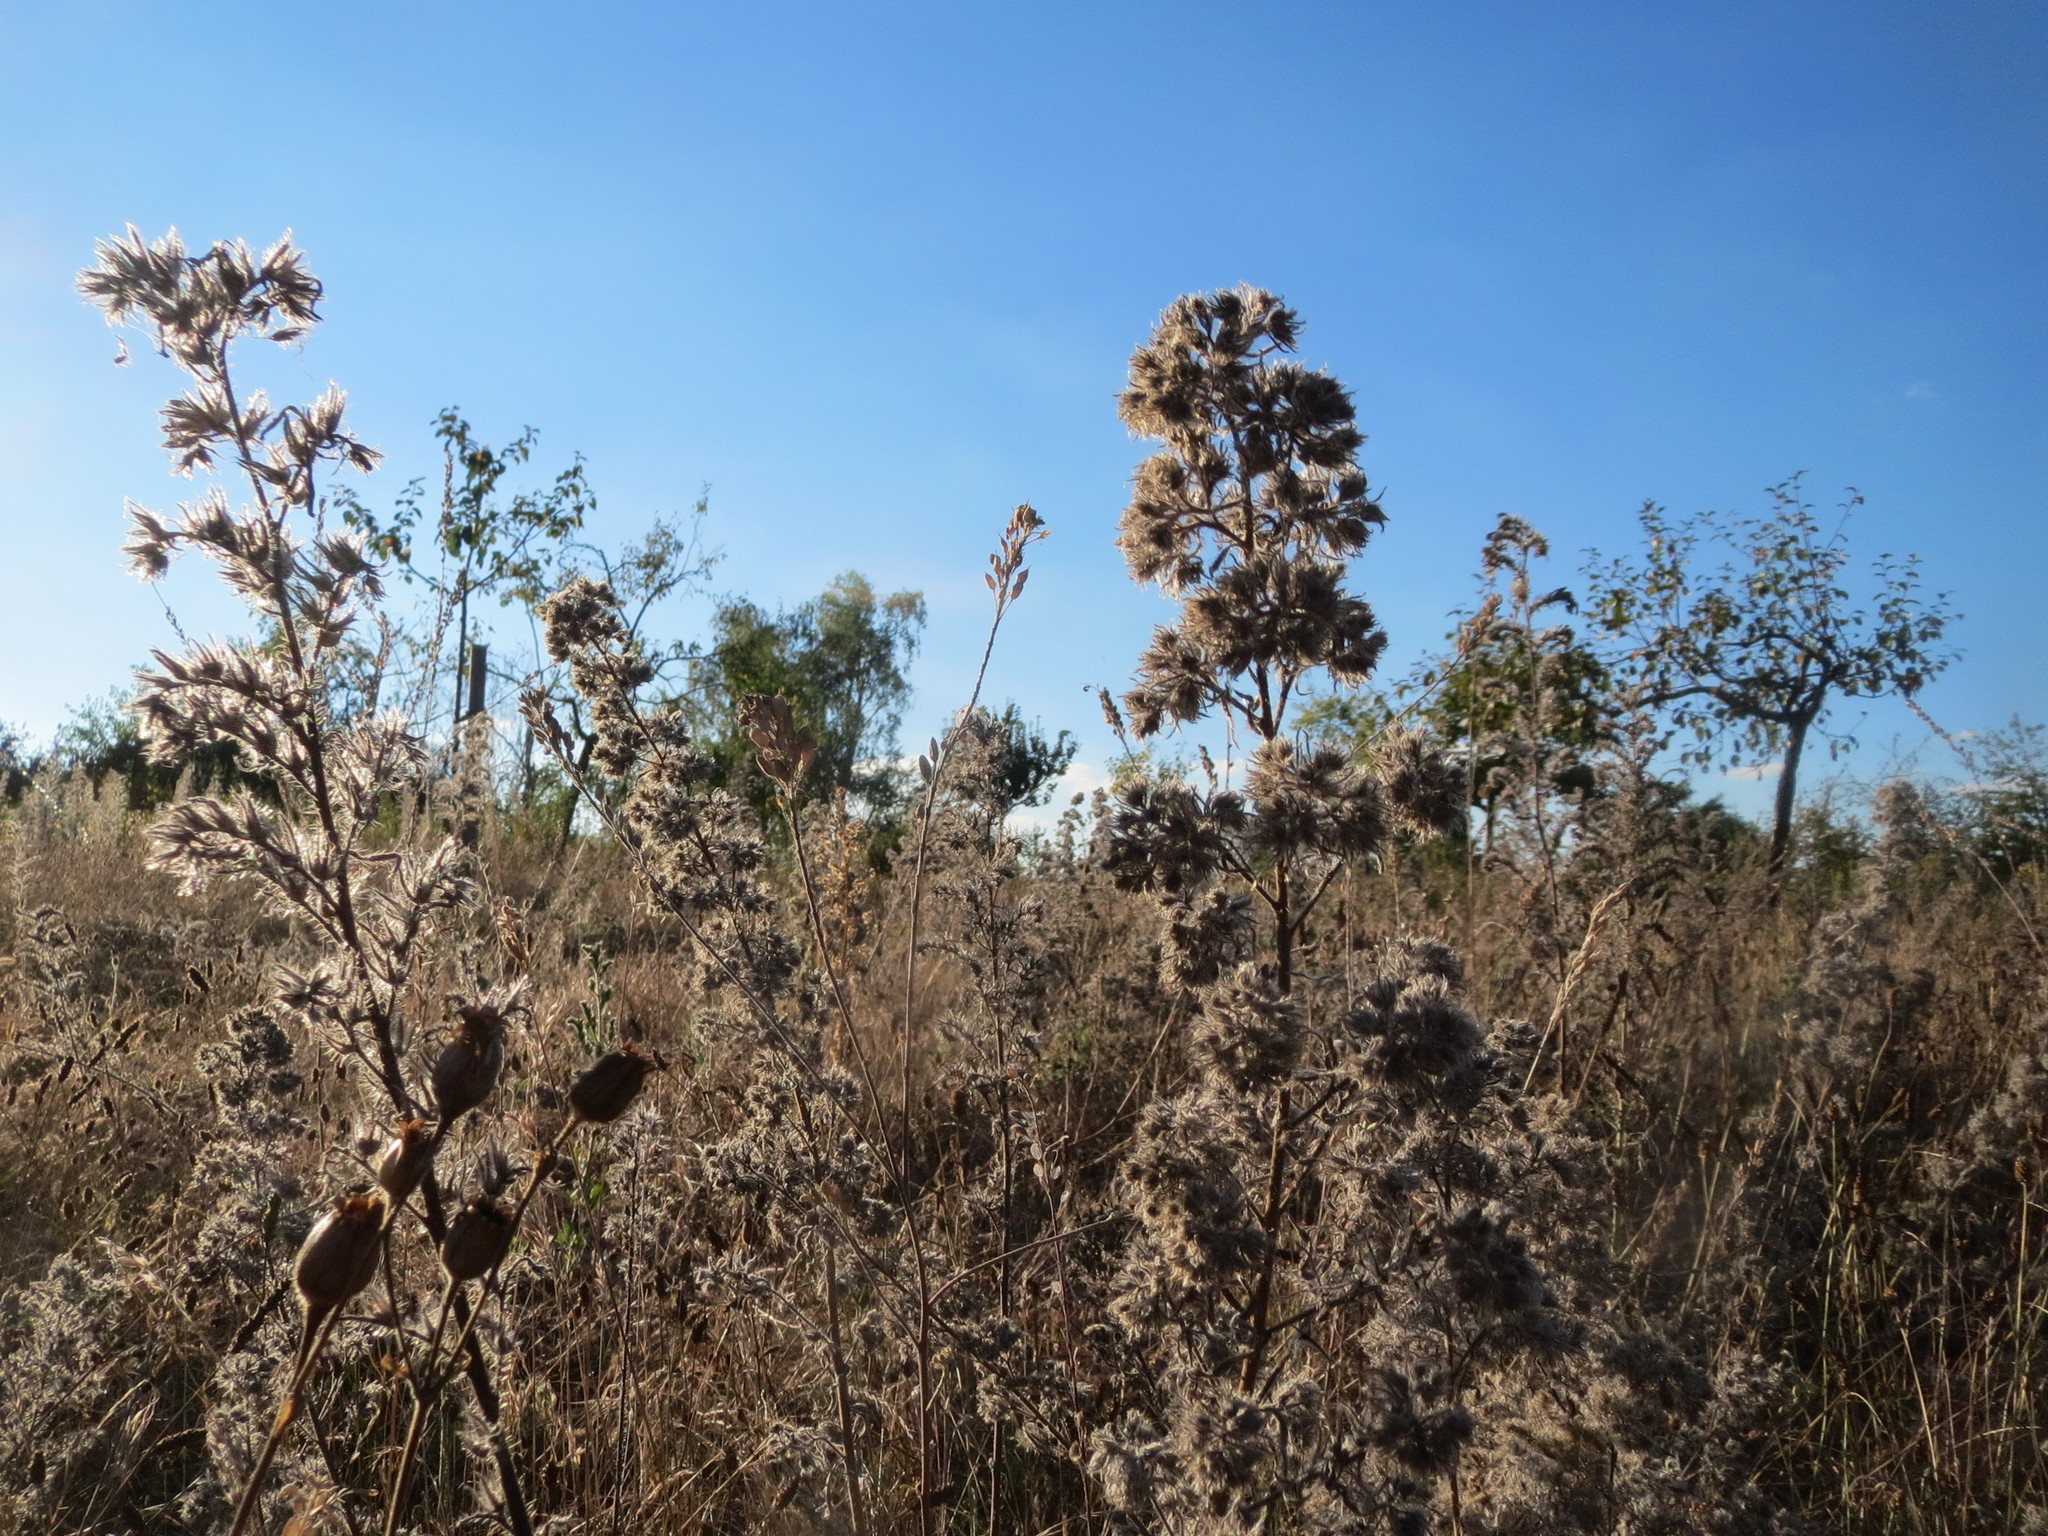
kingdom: Plantae
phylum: Tracheophyta
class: Magnoliopsida
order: Boraginales
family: Boraginaceae
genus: Echium
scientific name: Echium vulgare
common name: Common viper's bugloss
